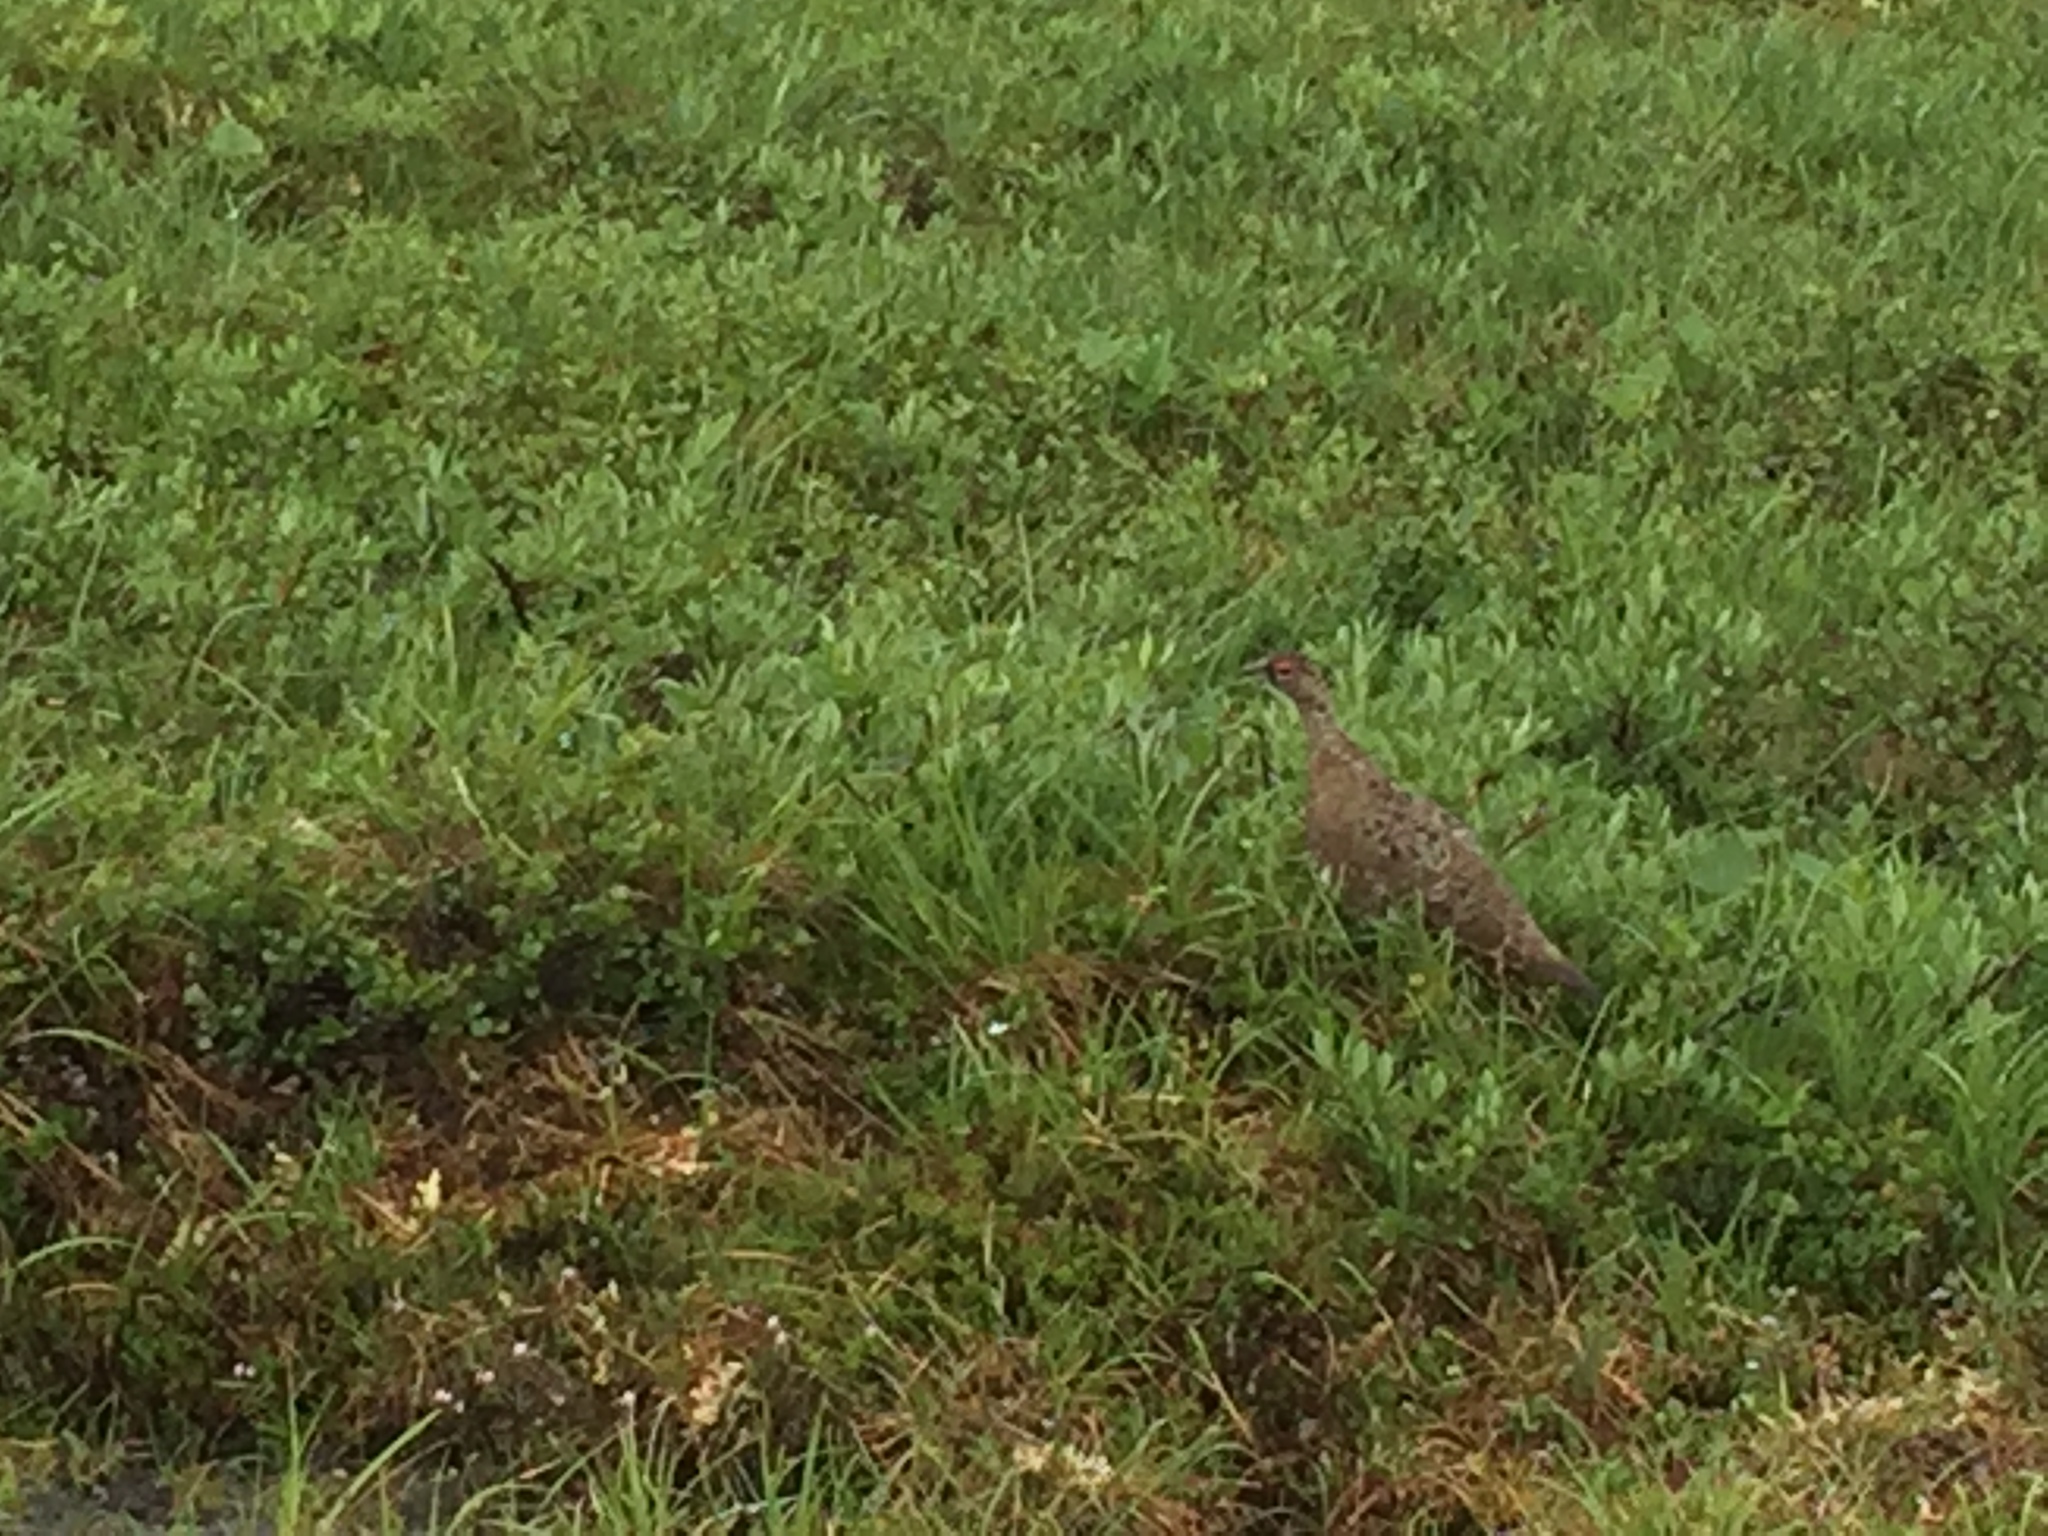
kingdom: Animalia
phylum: Chordata
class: Aves
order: Galliformes
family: Phasianidae
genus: Lagopus
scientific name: Lagopus
